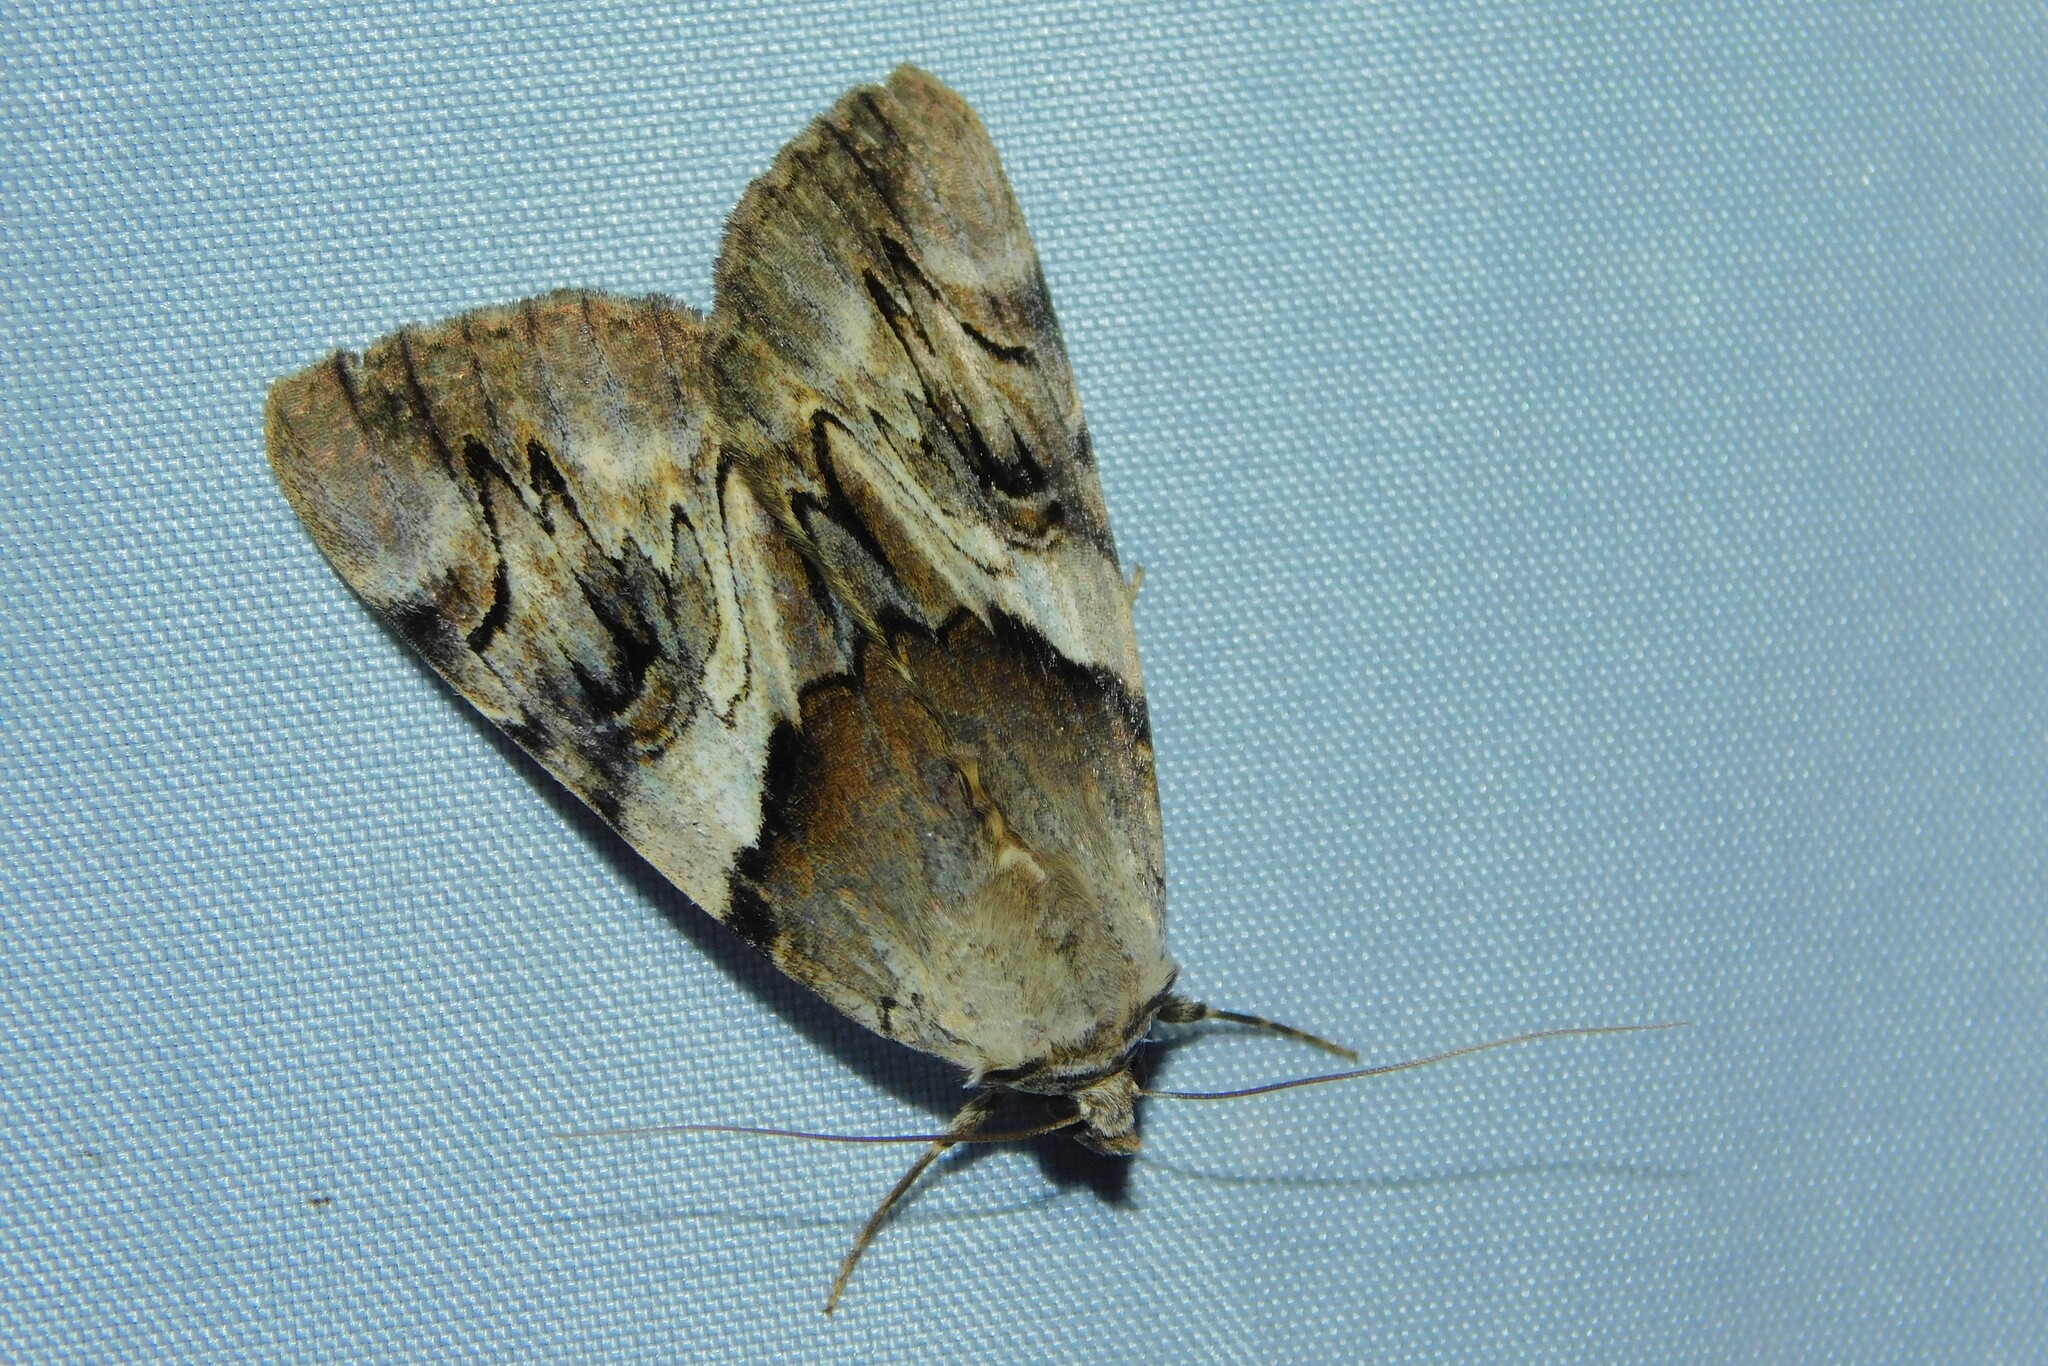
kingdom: Animalia
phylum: Arthropoda
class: Insecta
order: Lepidoptera
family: Erebidae
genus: Catocala
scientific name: Catocala fulminea
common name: Yellow bands underwing
